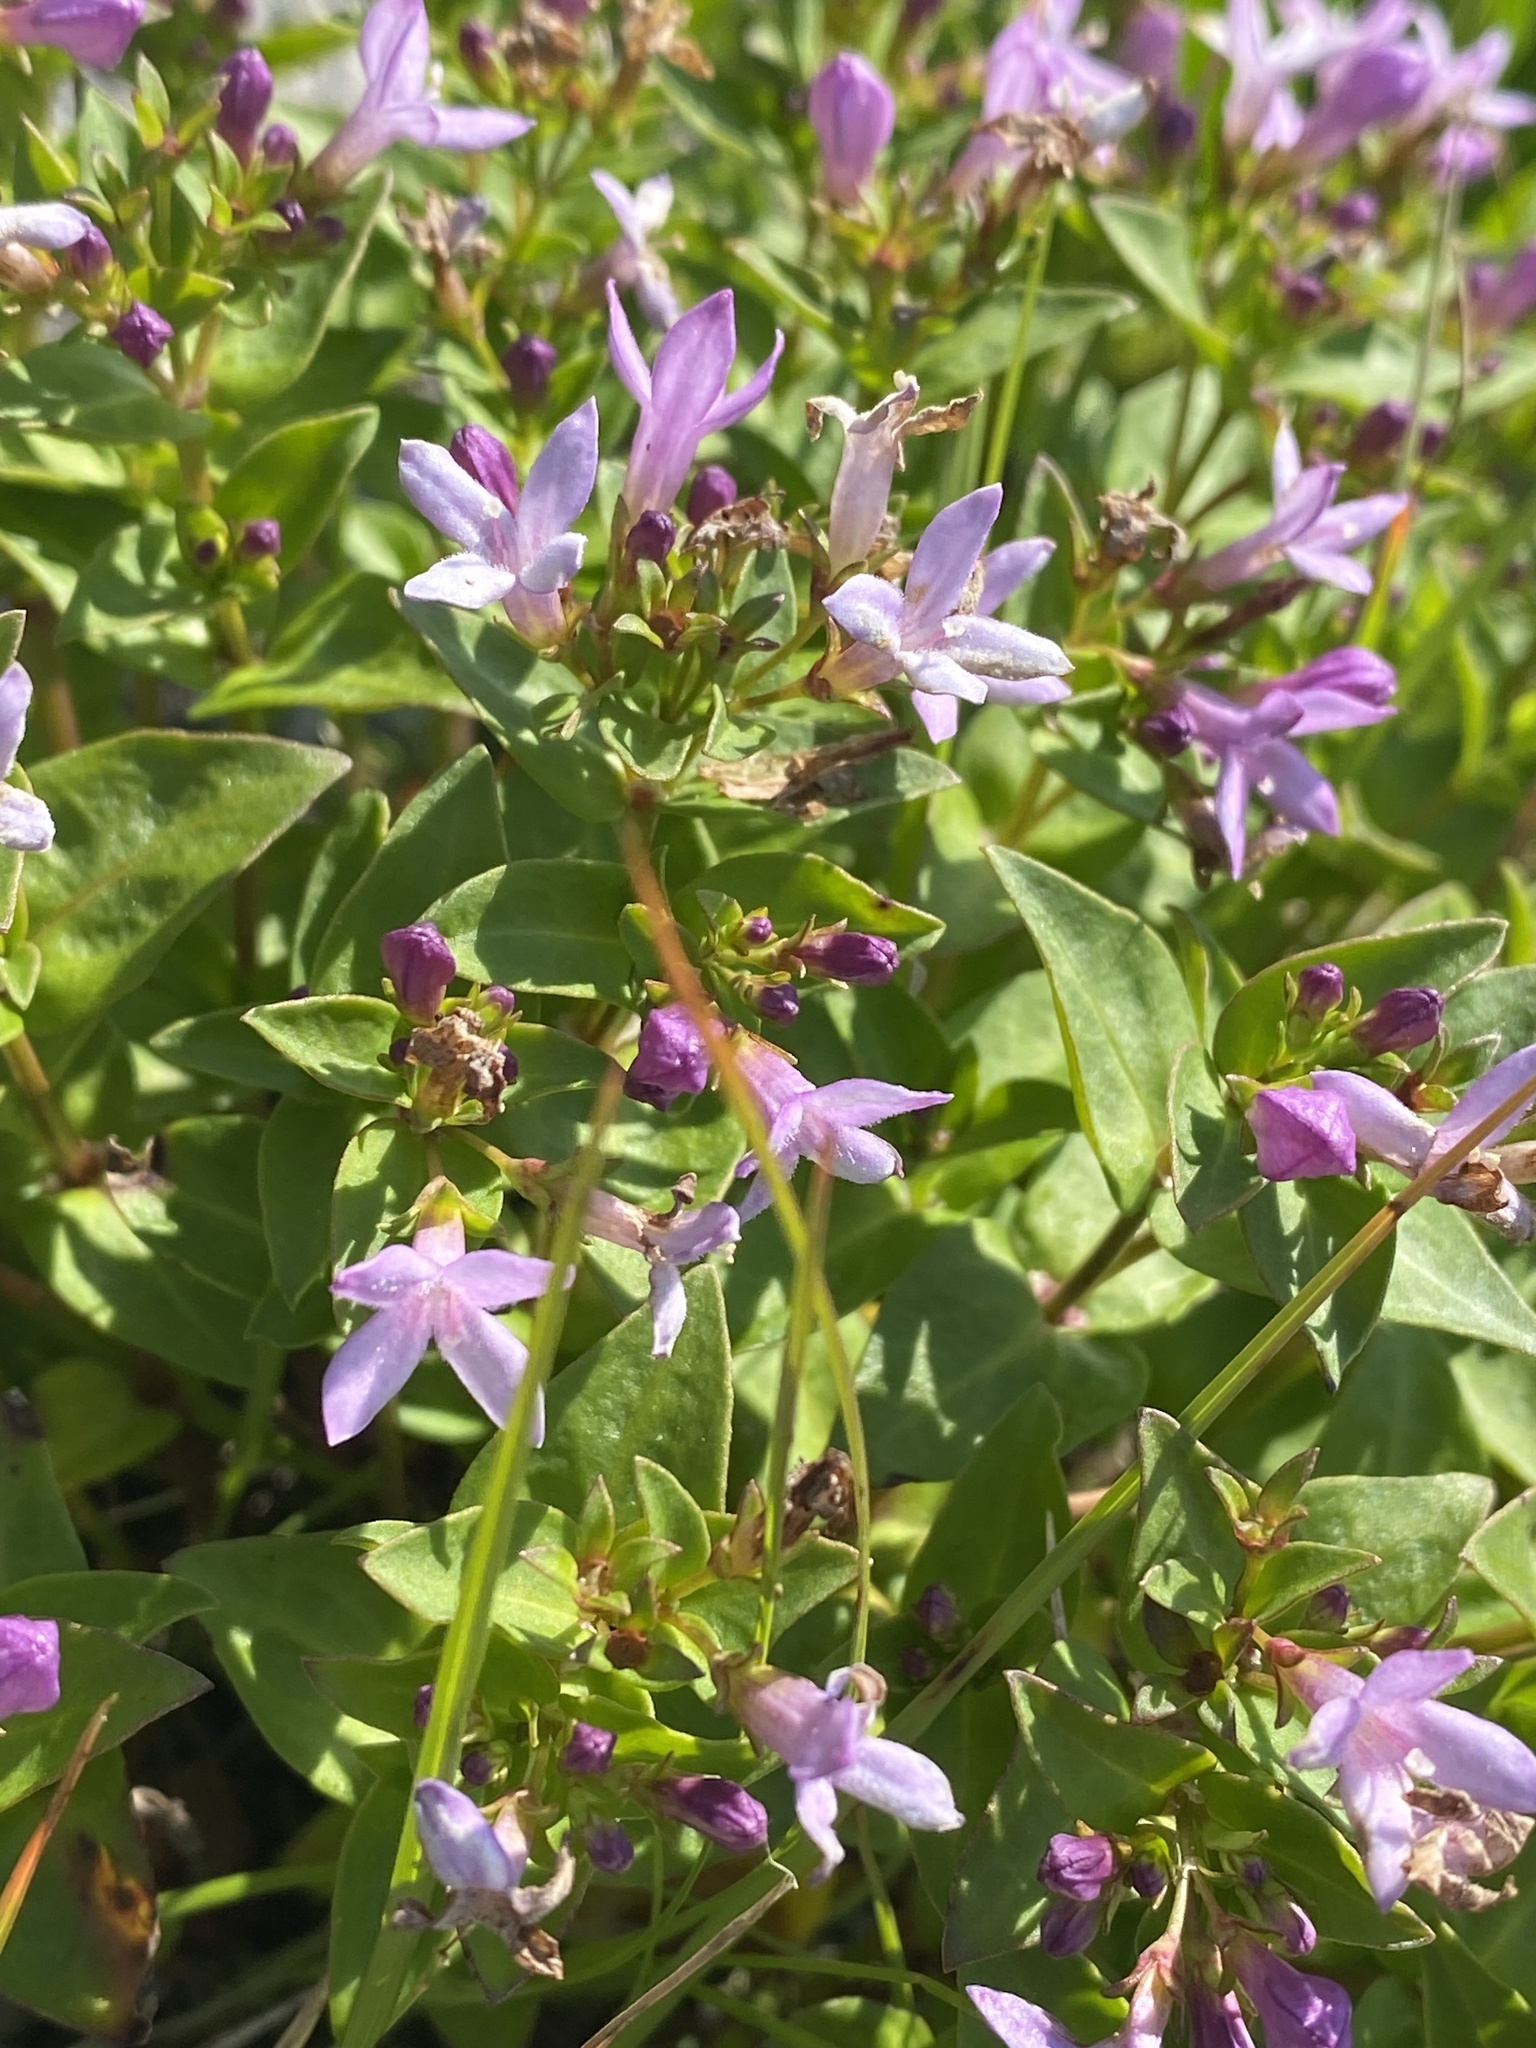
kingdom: Plantae
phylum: Tracheophyta
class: Magnoliopsida
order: Gentianales
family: Rubiaceae
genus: Houstonia
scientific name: Houstonia purpurea
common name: Summer bluet
